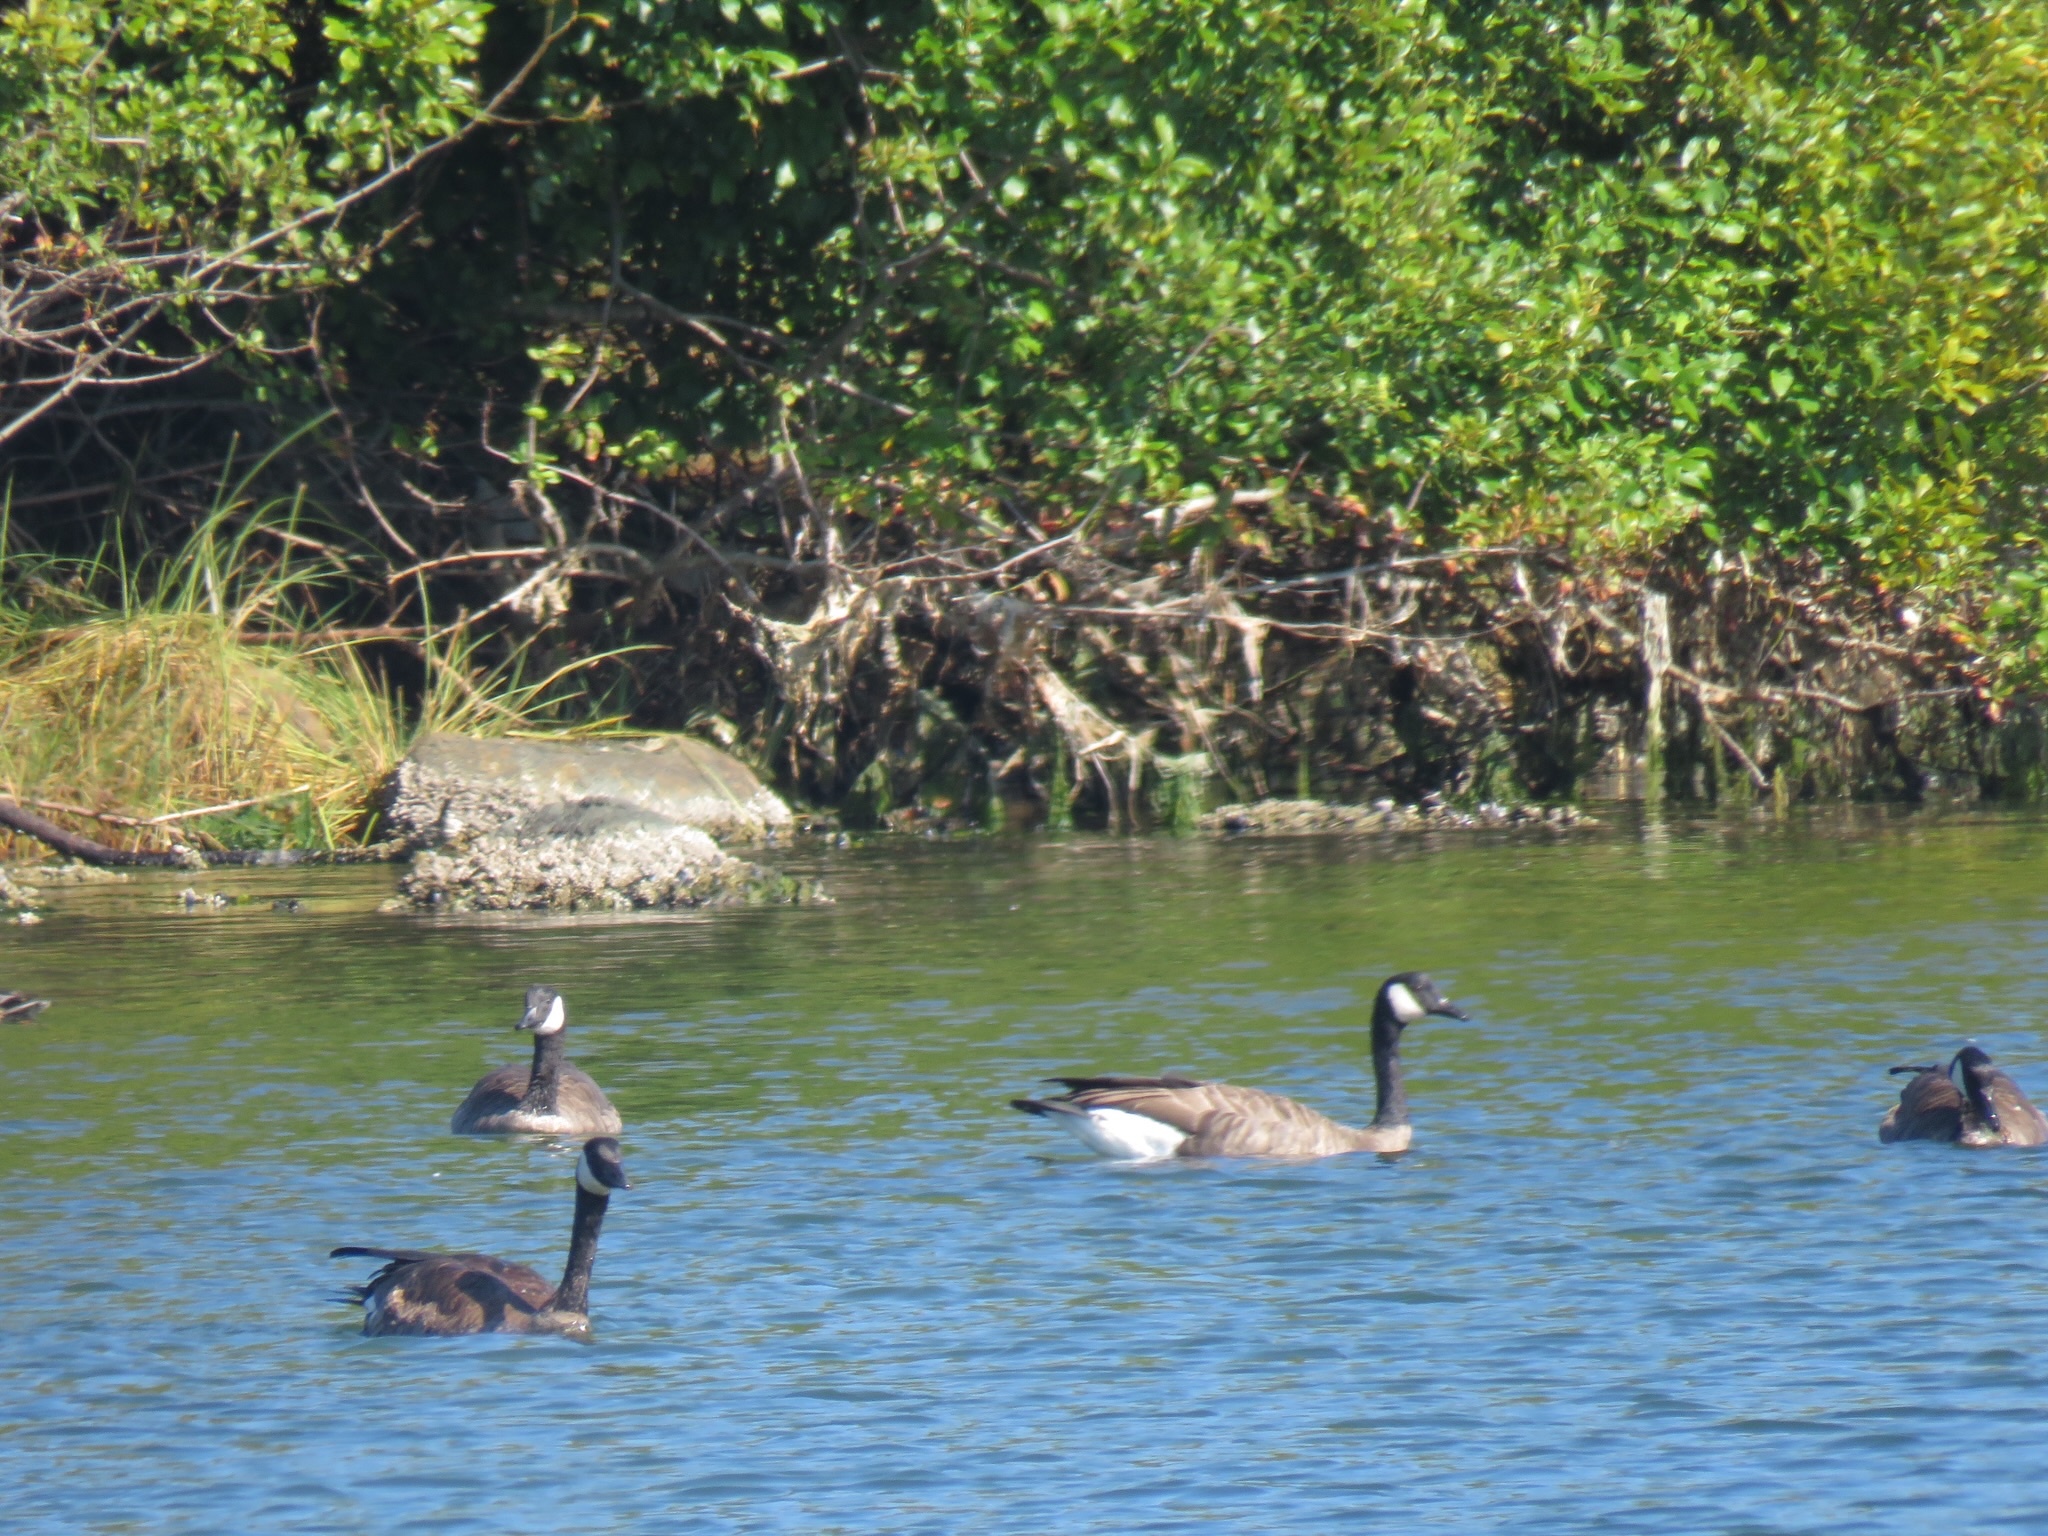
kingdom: Animalia
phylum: Chordata
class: Aves
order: Anseriformes
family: Anatidae
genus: Branta
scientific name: Branta canadensis
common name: Canada goose
